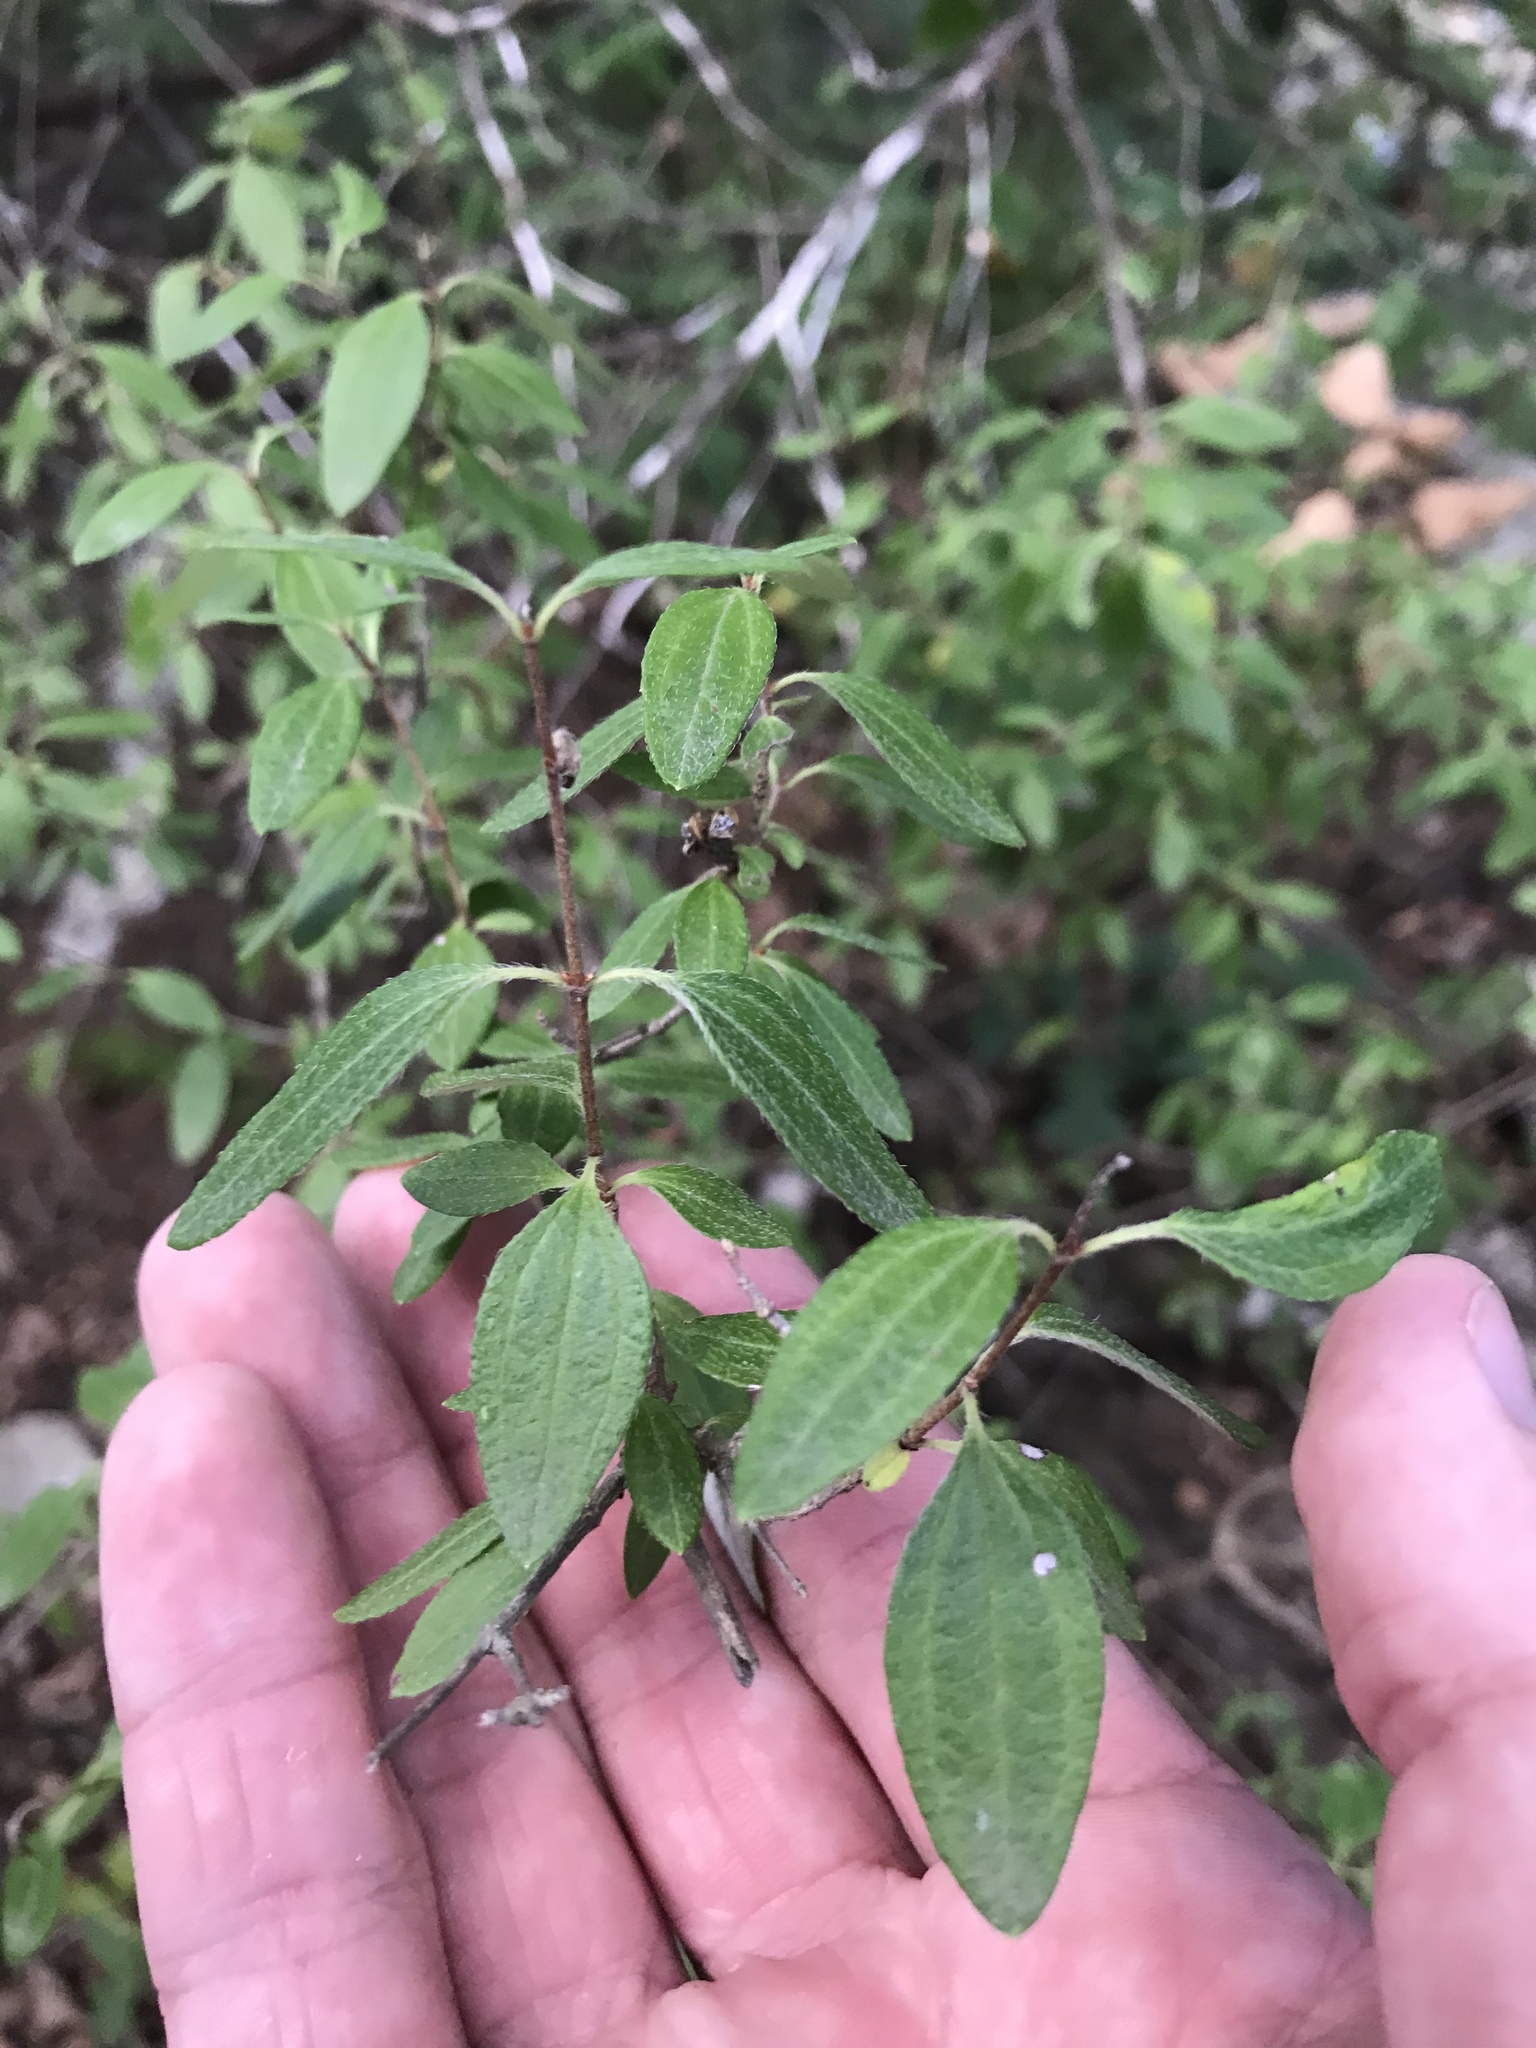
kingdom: Plantae
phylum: Tracheophyta
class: Magnoliopsida
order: Cornales
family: Hydrangeaceae
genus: Philadelphus
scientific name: Philadelphus texensis
